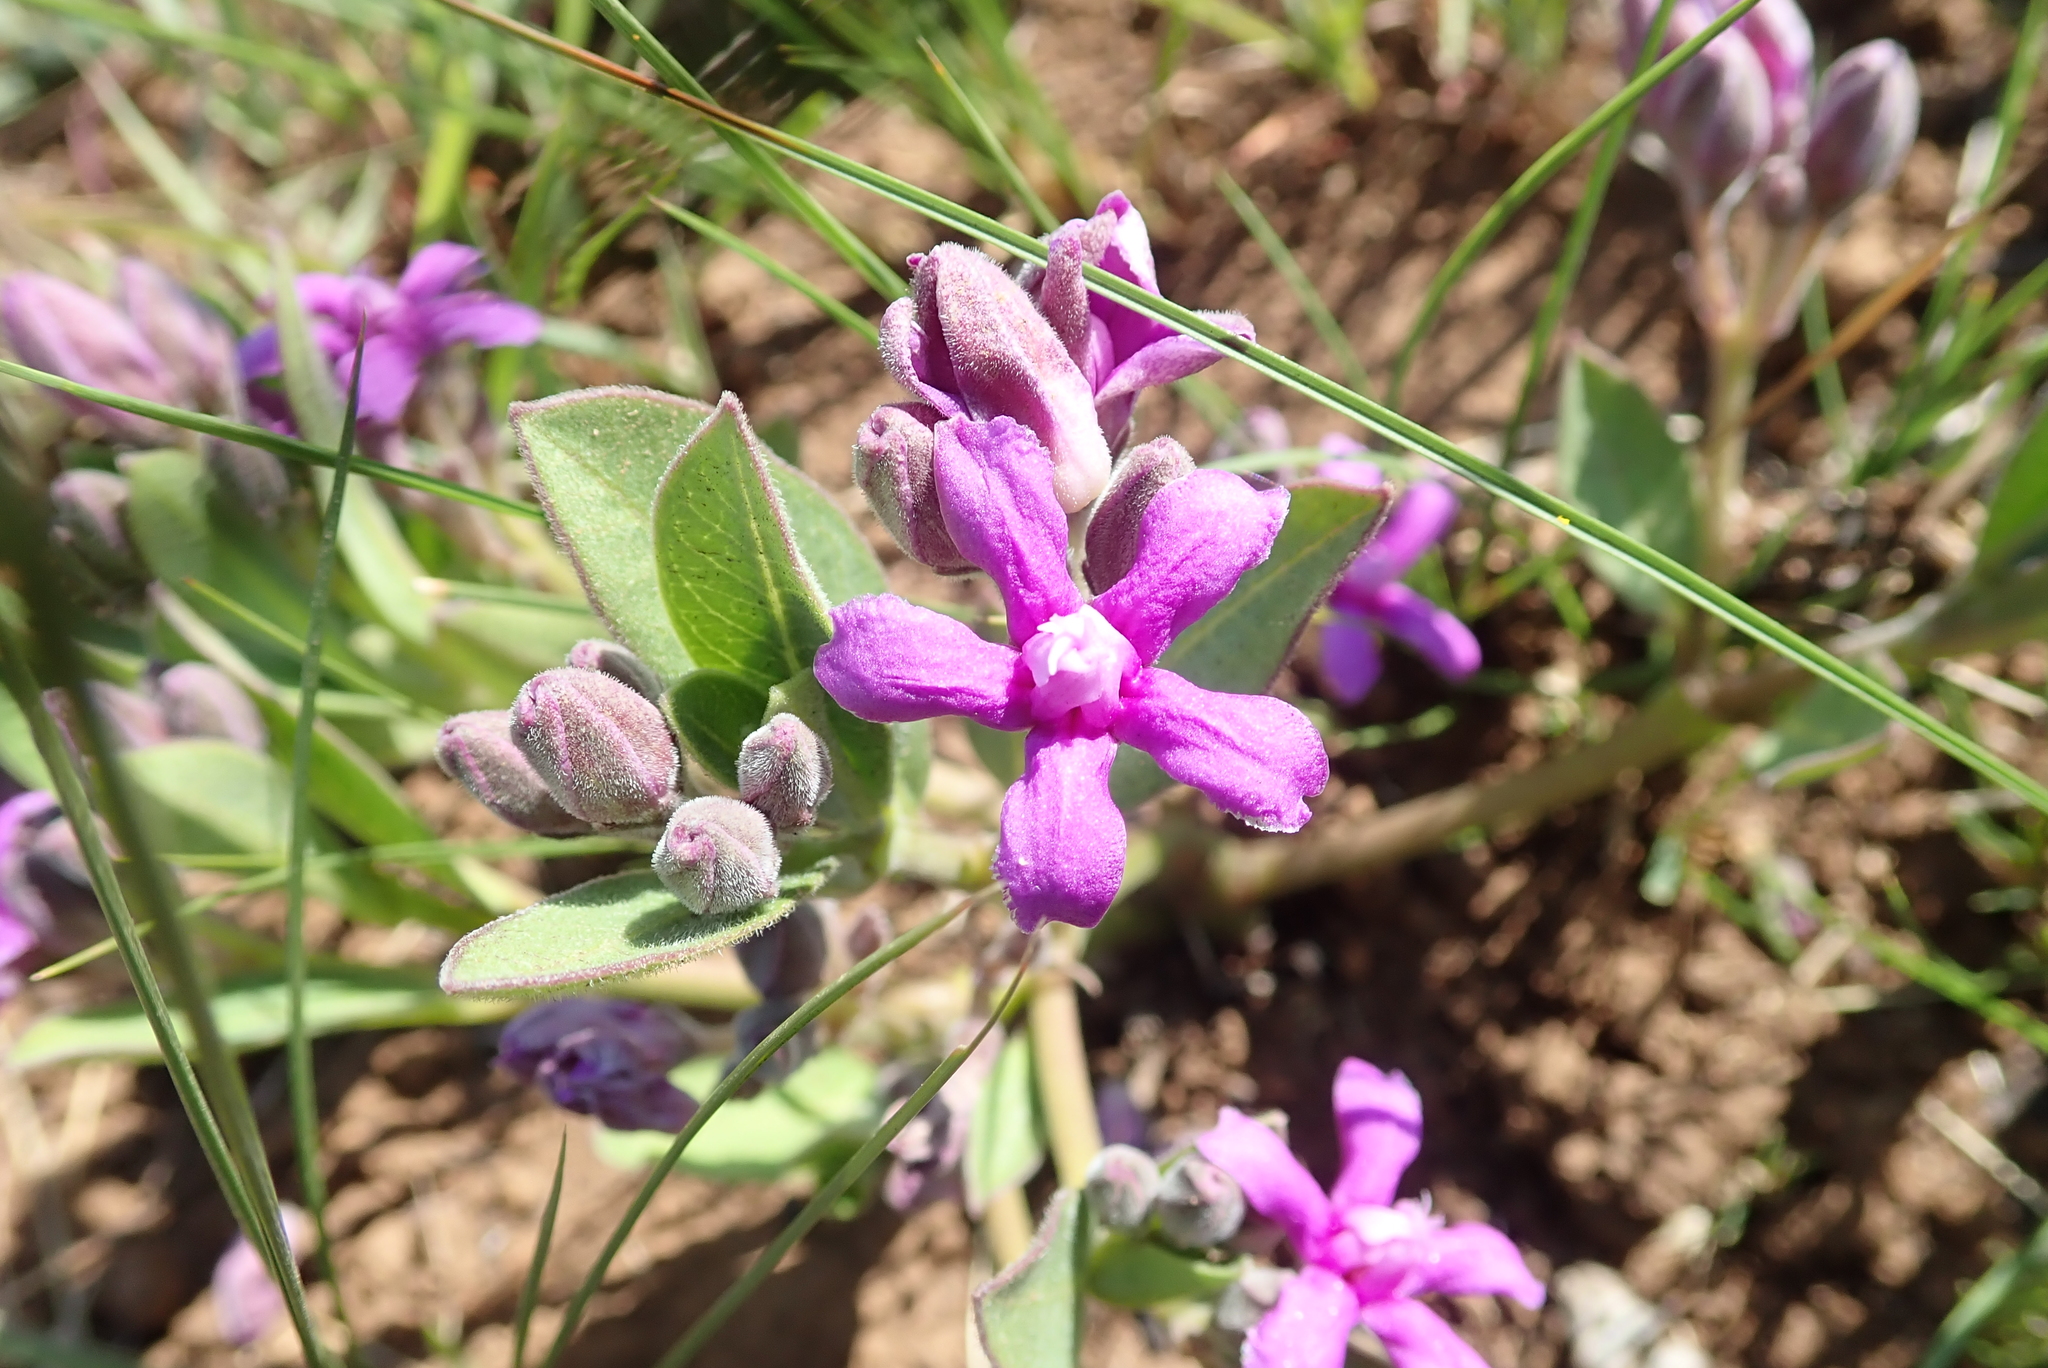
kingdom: Plantae
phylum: Tracheophyta
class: Magnoliopsida
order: Gentianales
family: Apocynaceae
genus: Raphionacme
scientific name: Raphionacme hirsuta
